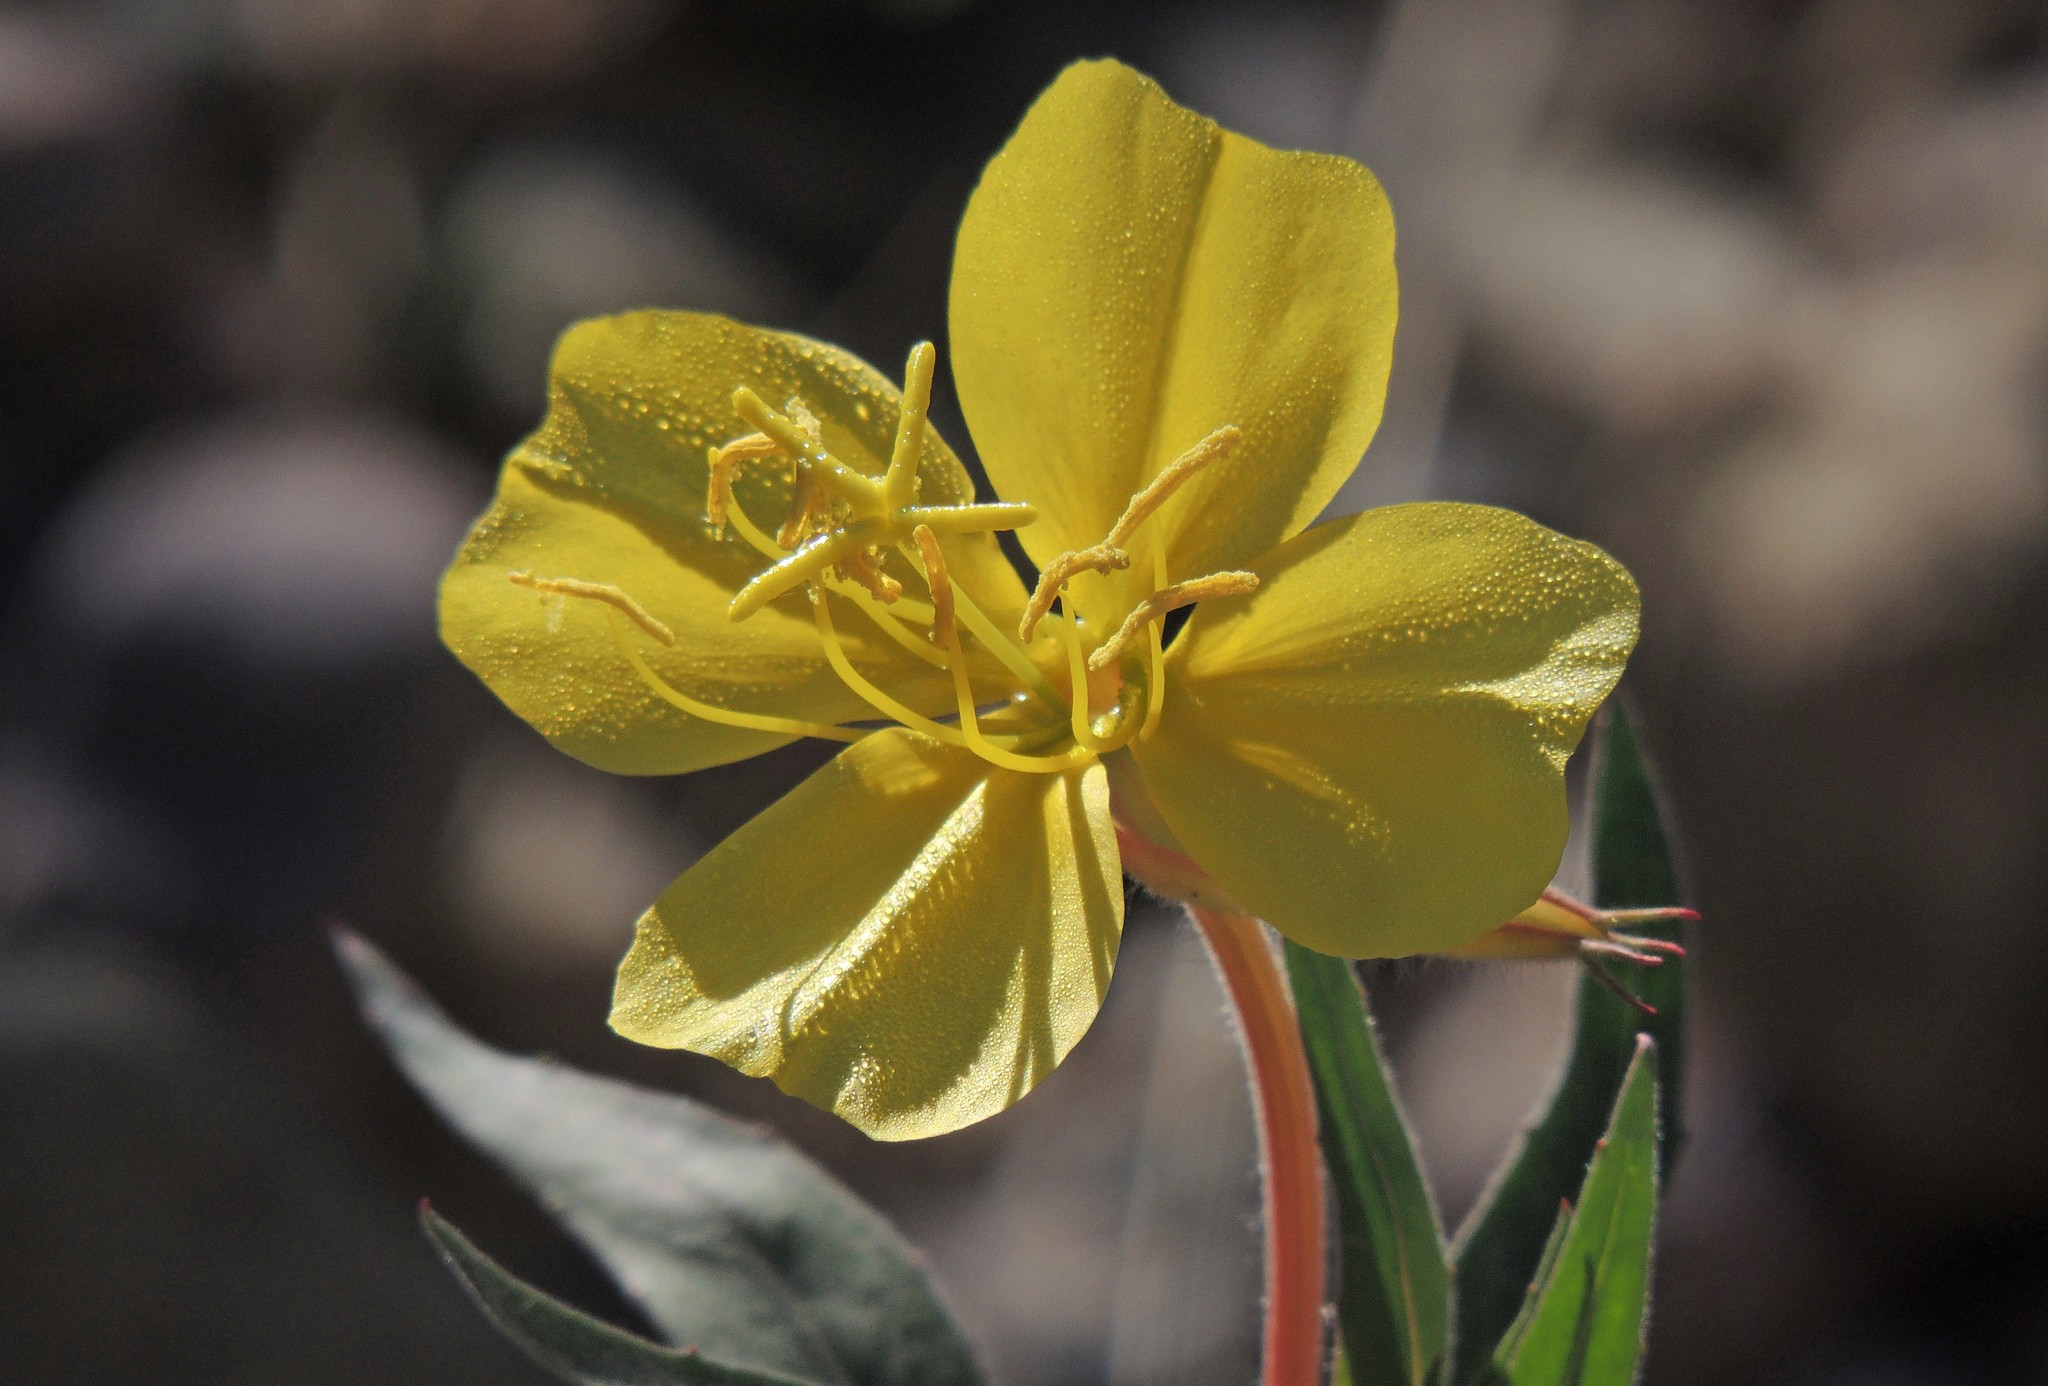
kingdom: Plantae
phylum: Tracheophyta
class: Magnoliopsida
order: Myrtales
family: Onagraceae
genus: Oenothera
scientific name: Oenothera affinis
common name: Longflower evening primrose
